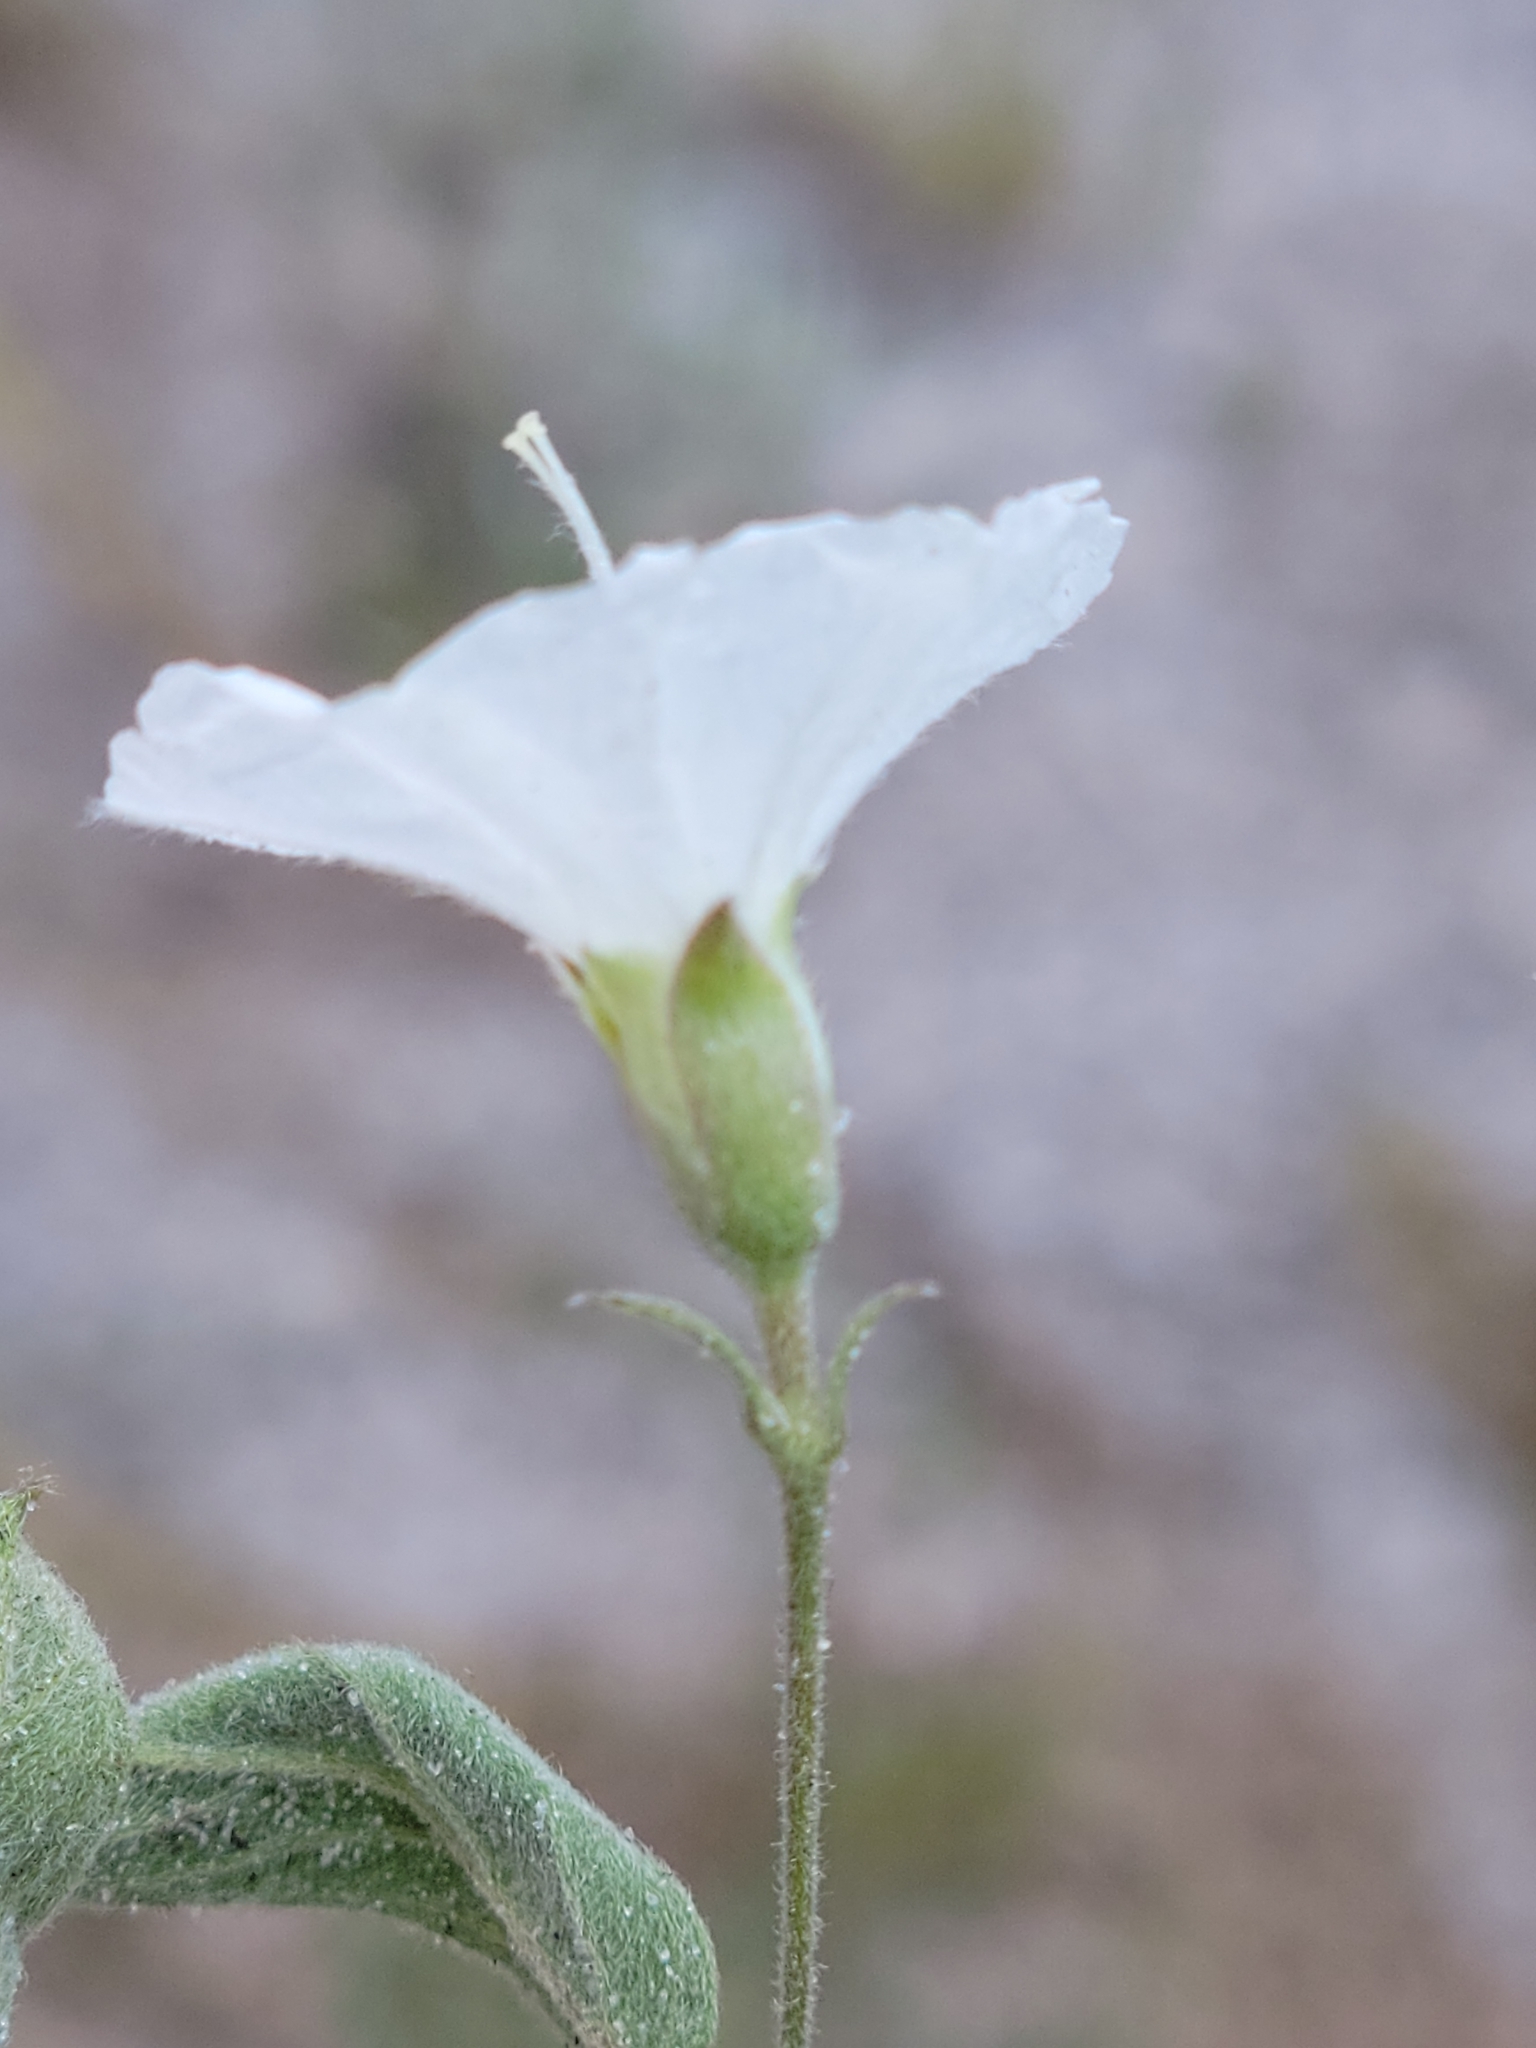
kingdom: Plantae
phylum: Tracheophyta
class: Magnoliopsida
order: Solanales
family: Convolvulaceae
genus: Stylisma
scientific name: Stylisma villosa
